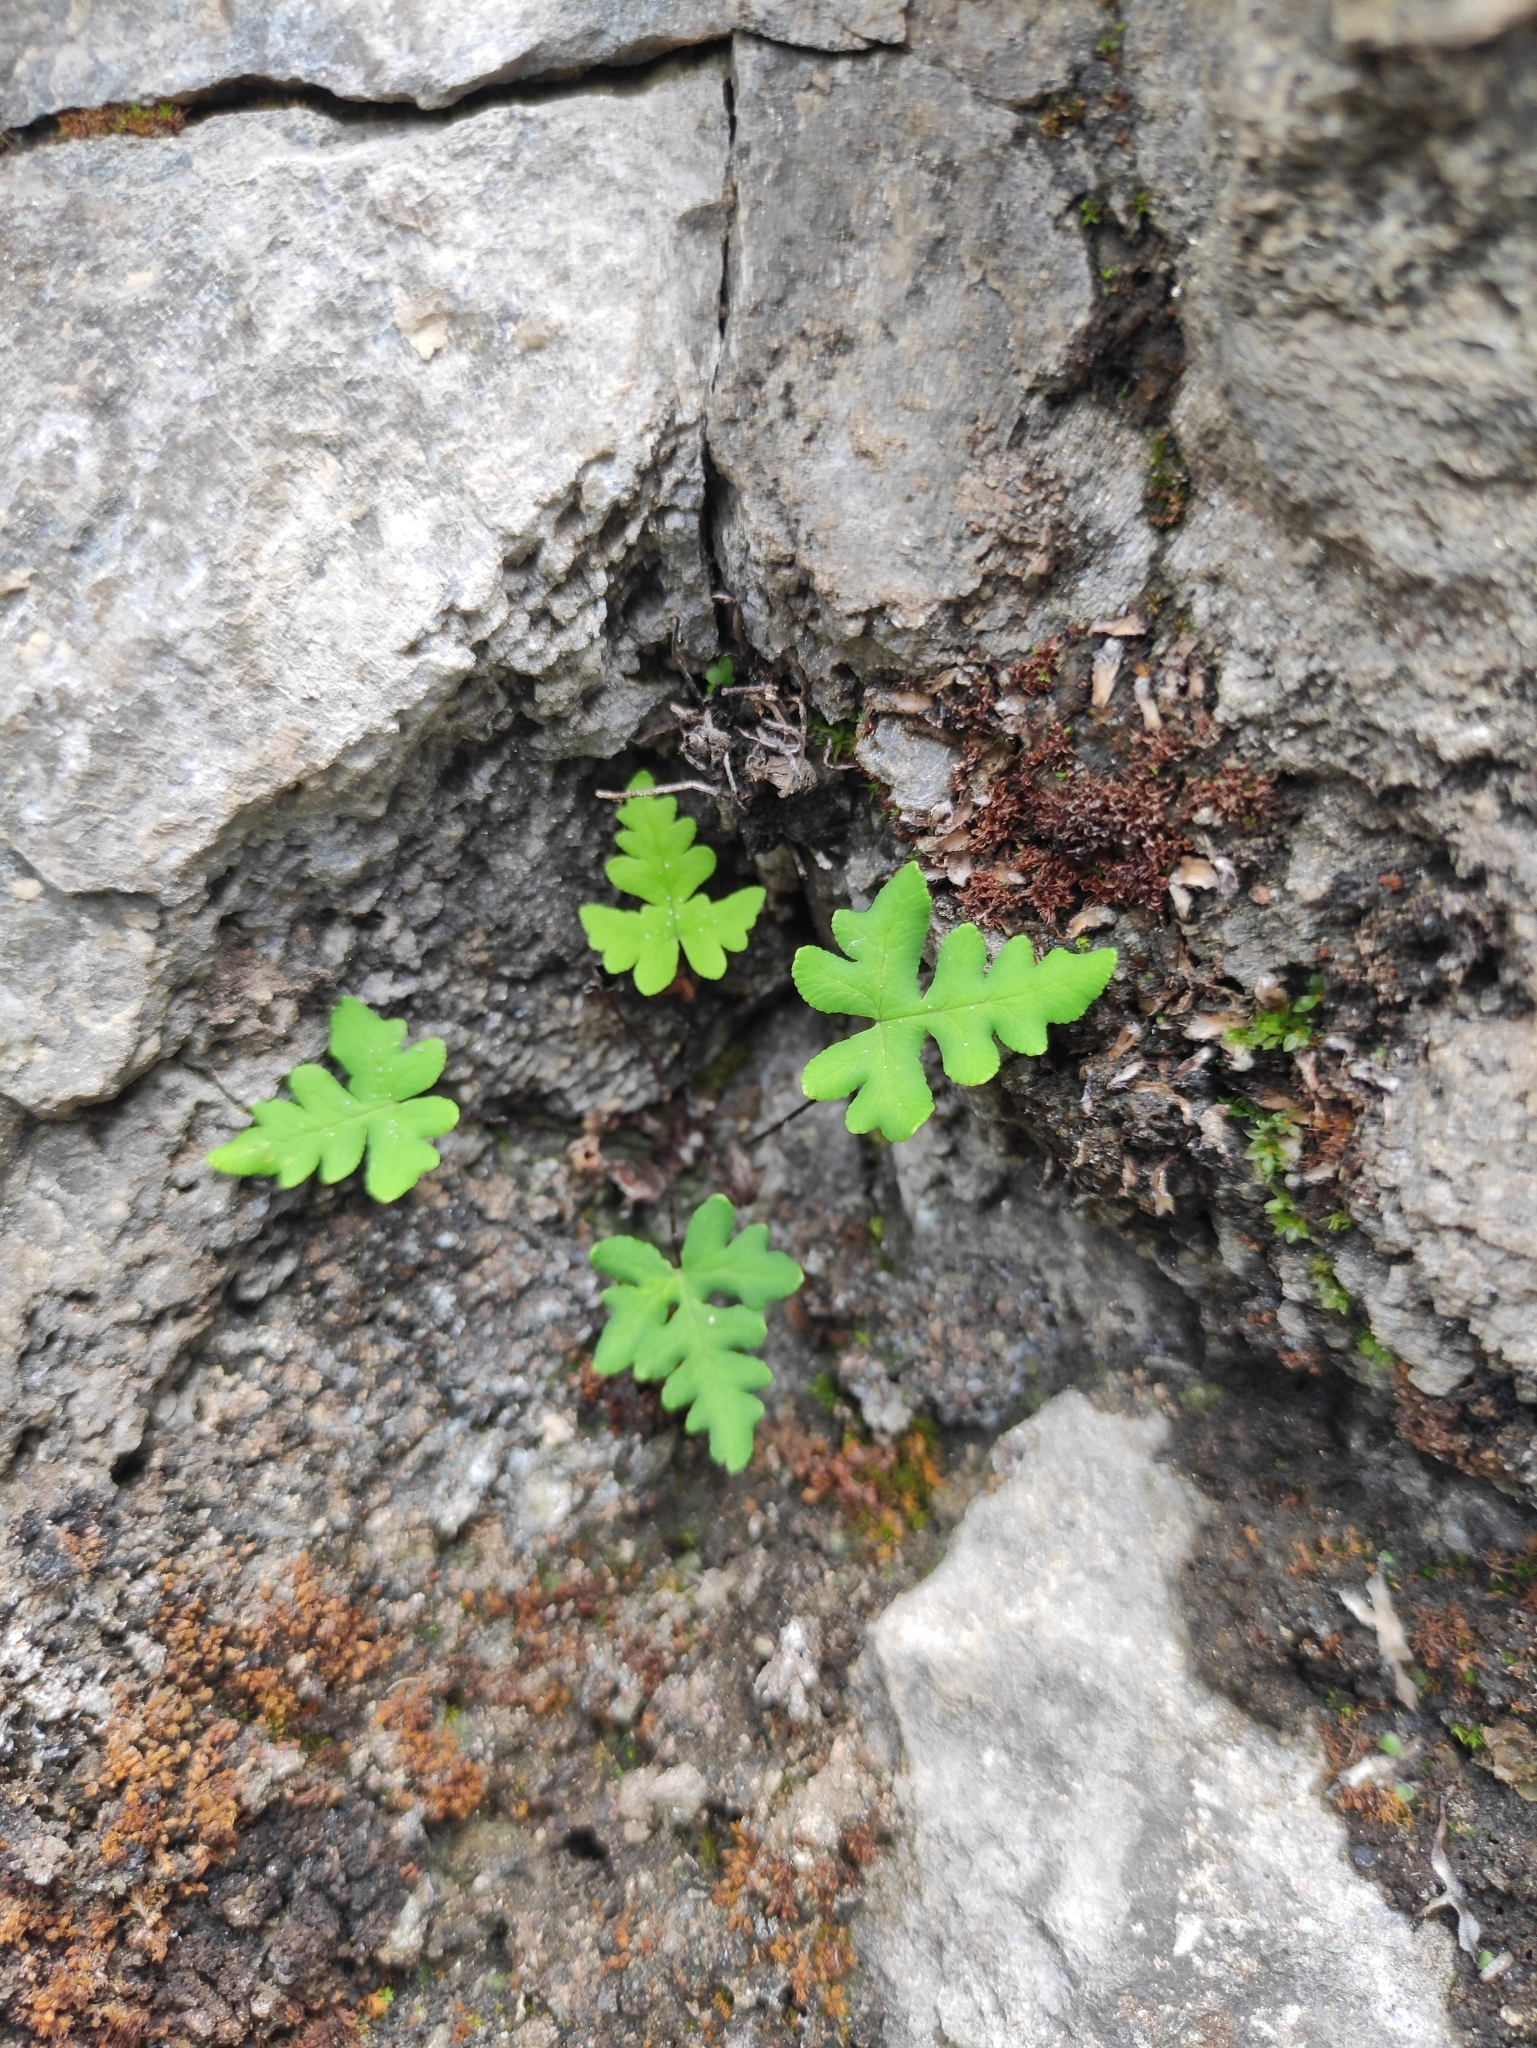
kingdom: Plantae
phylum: Tracheophyta
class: Polypodiopsida
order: Polypodiales
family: Pteridaceae
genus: Aleuritopteris
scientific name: Aleuritopteris argentea
